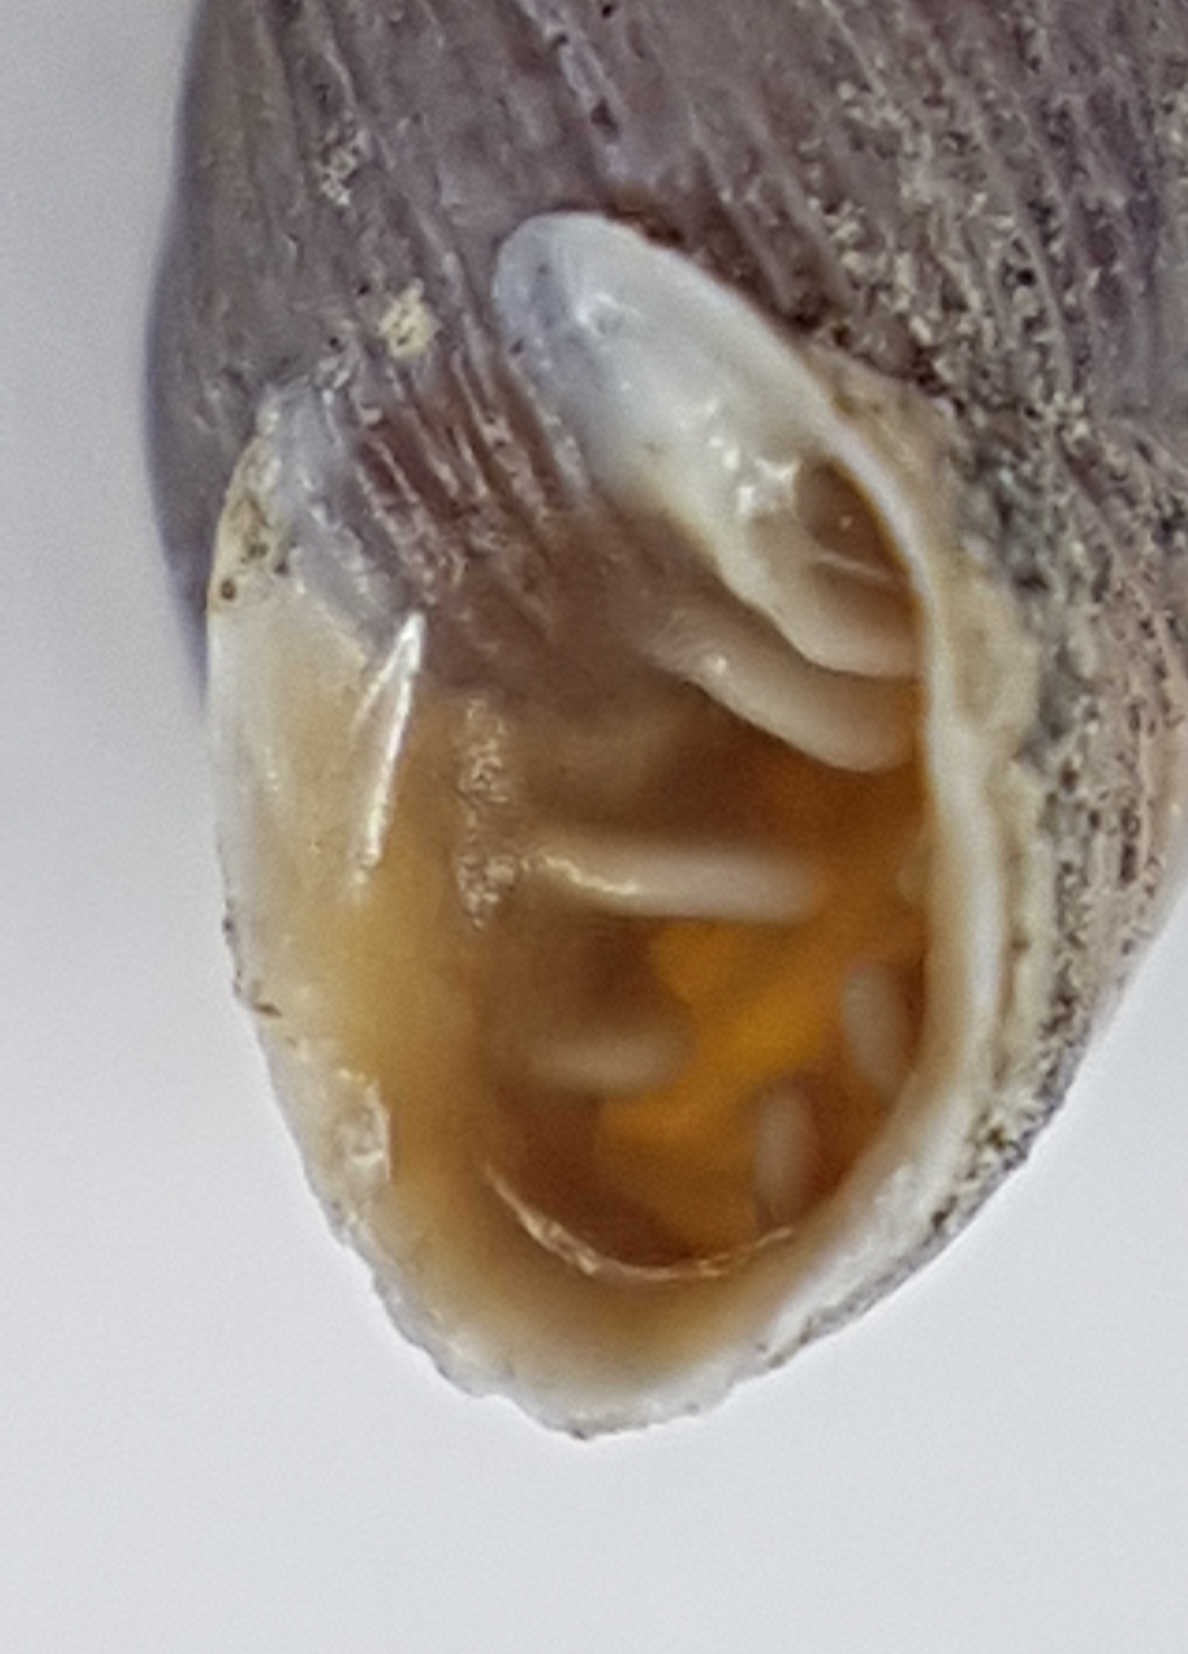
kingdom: Animalia
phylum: Mollusca
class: Gastropoda
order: Stylommatophora
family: Chondrinidae
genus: Chondrina
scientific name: Chondrina lusitanica
